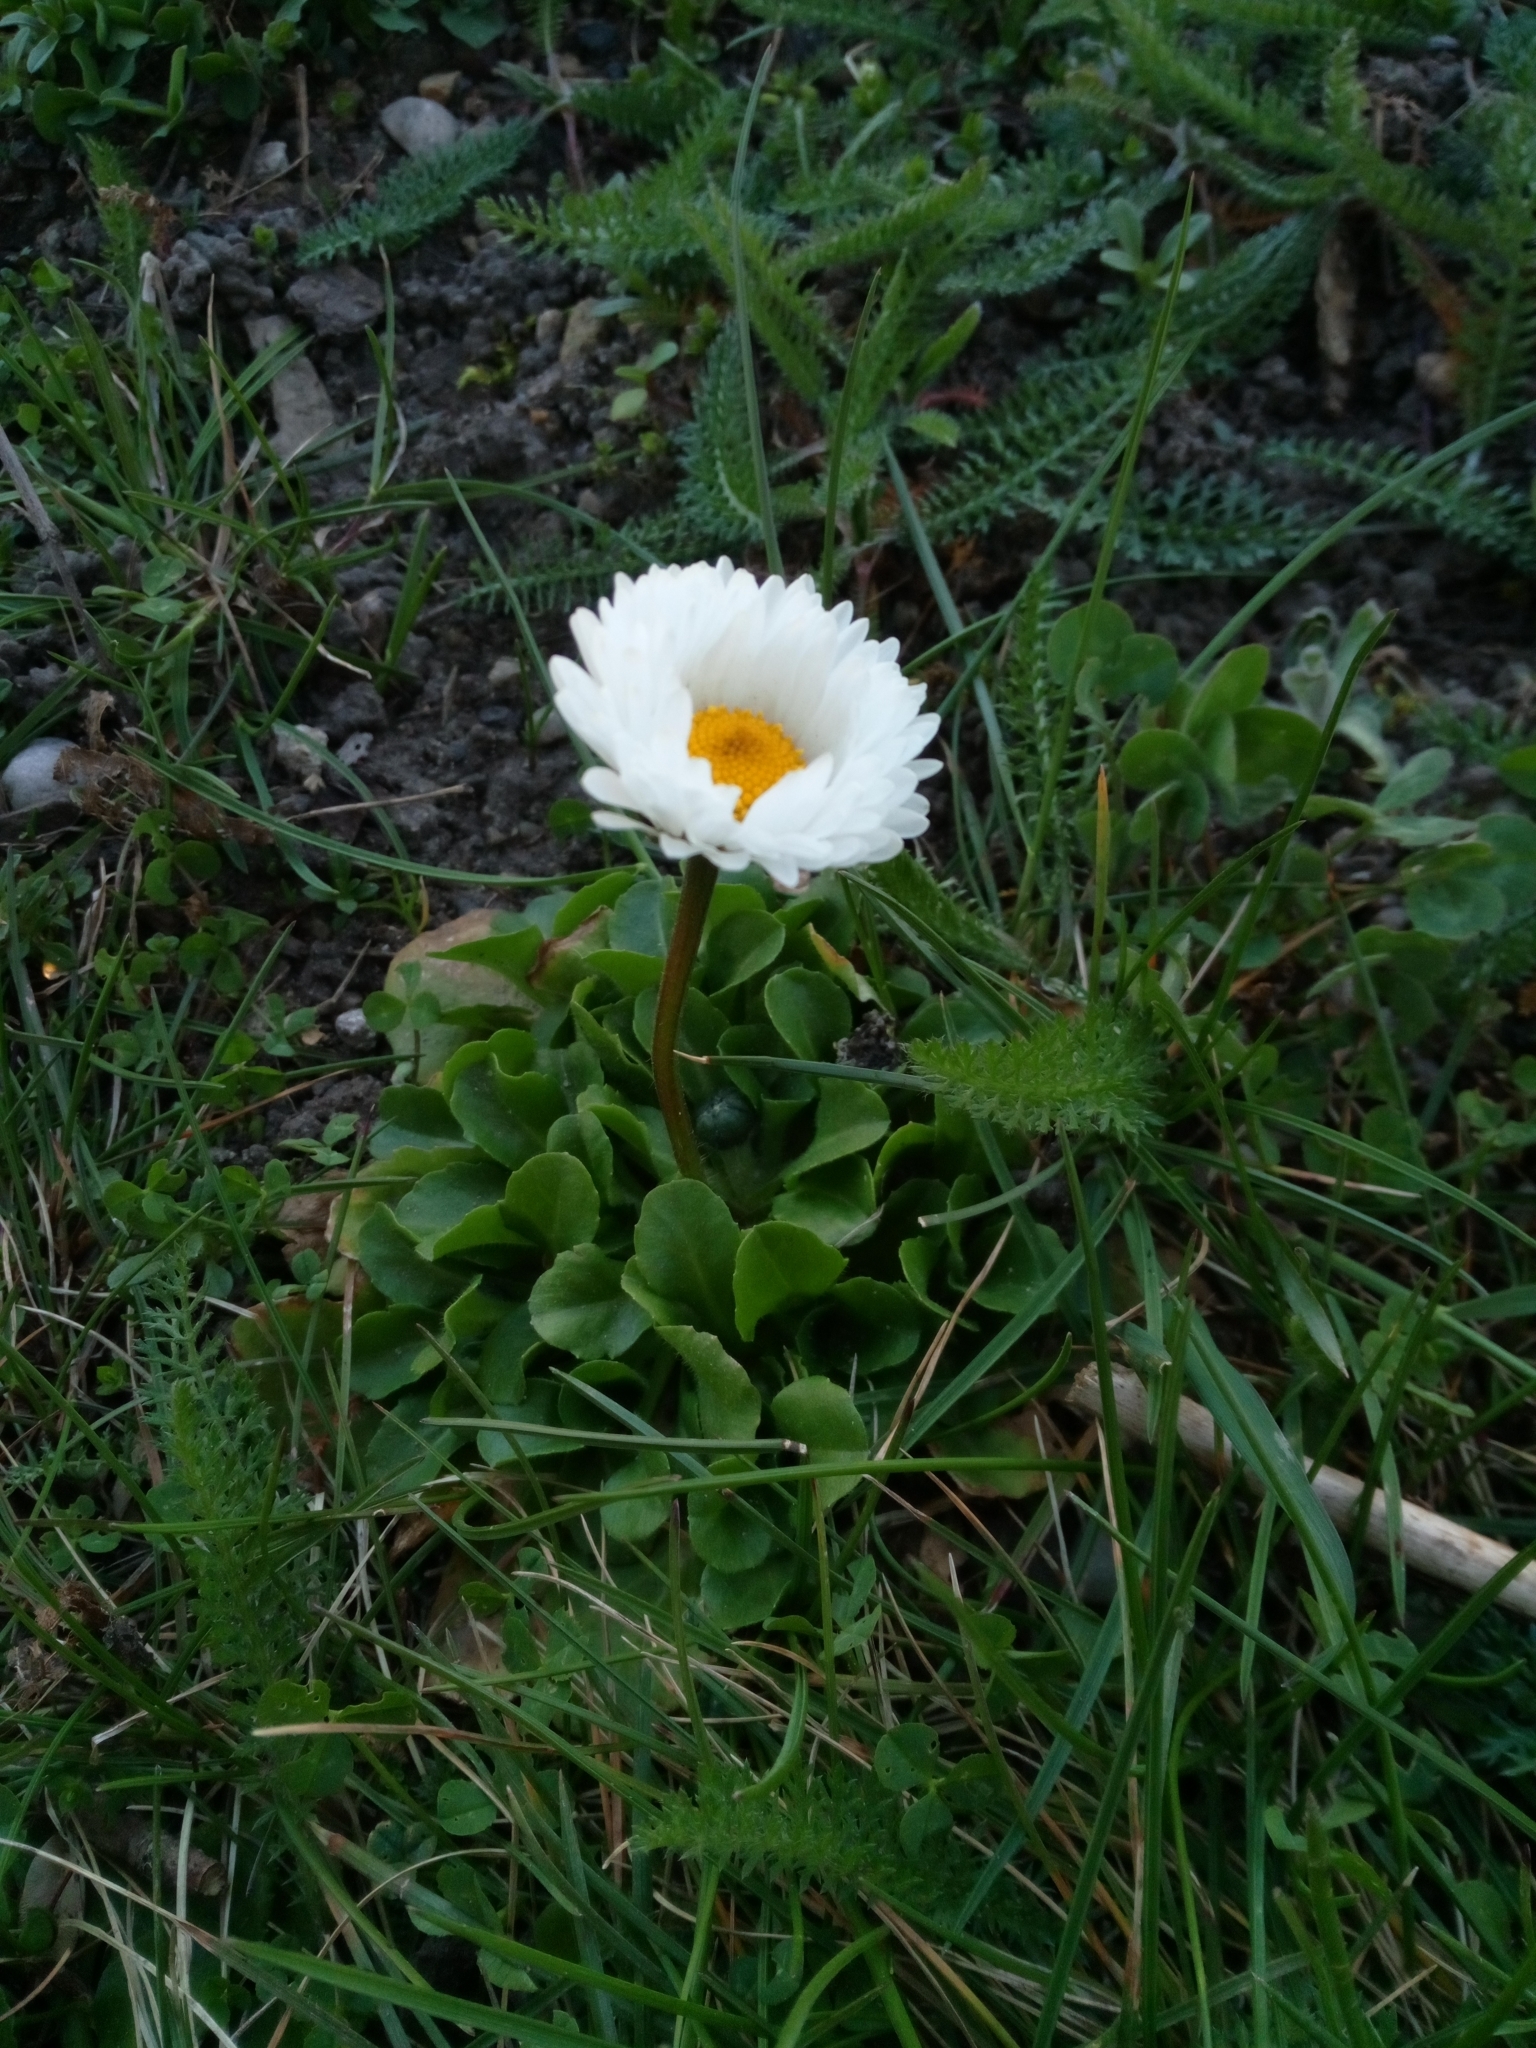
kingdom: Plantae
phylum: Tracheophyta
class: Magnoliopsida
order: Asterales
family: Asteraceae
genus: Bellis
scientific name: Bellis perennis
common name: Lawndaisy
